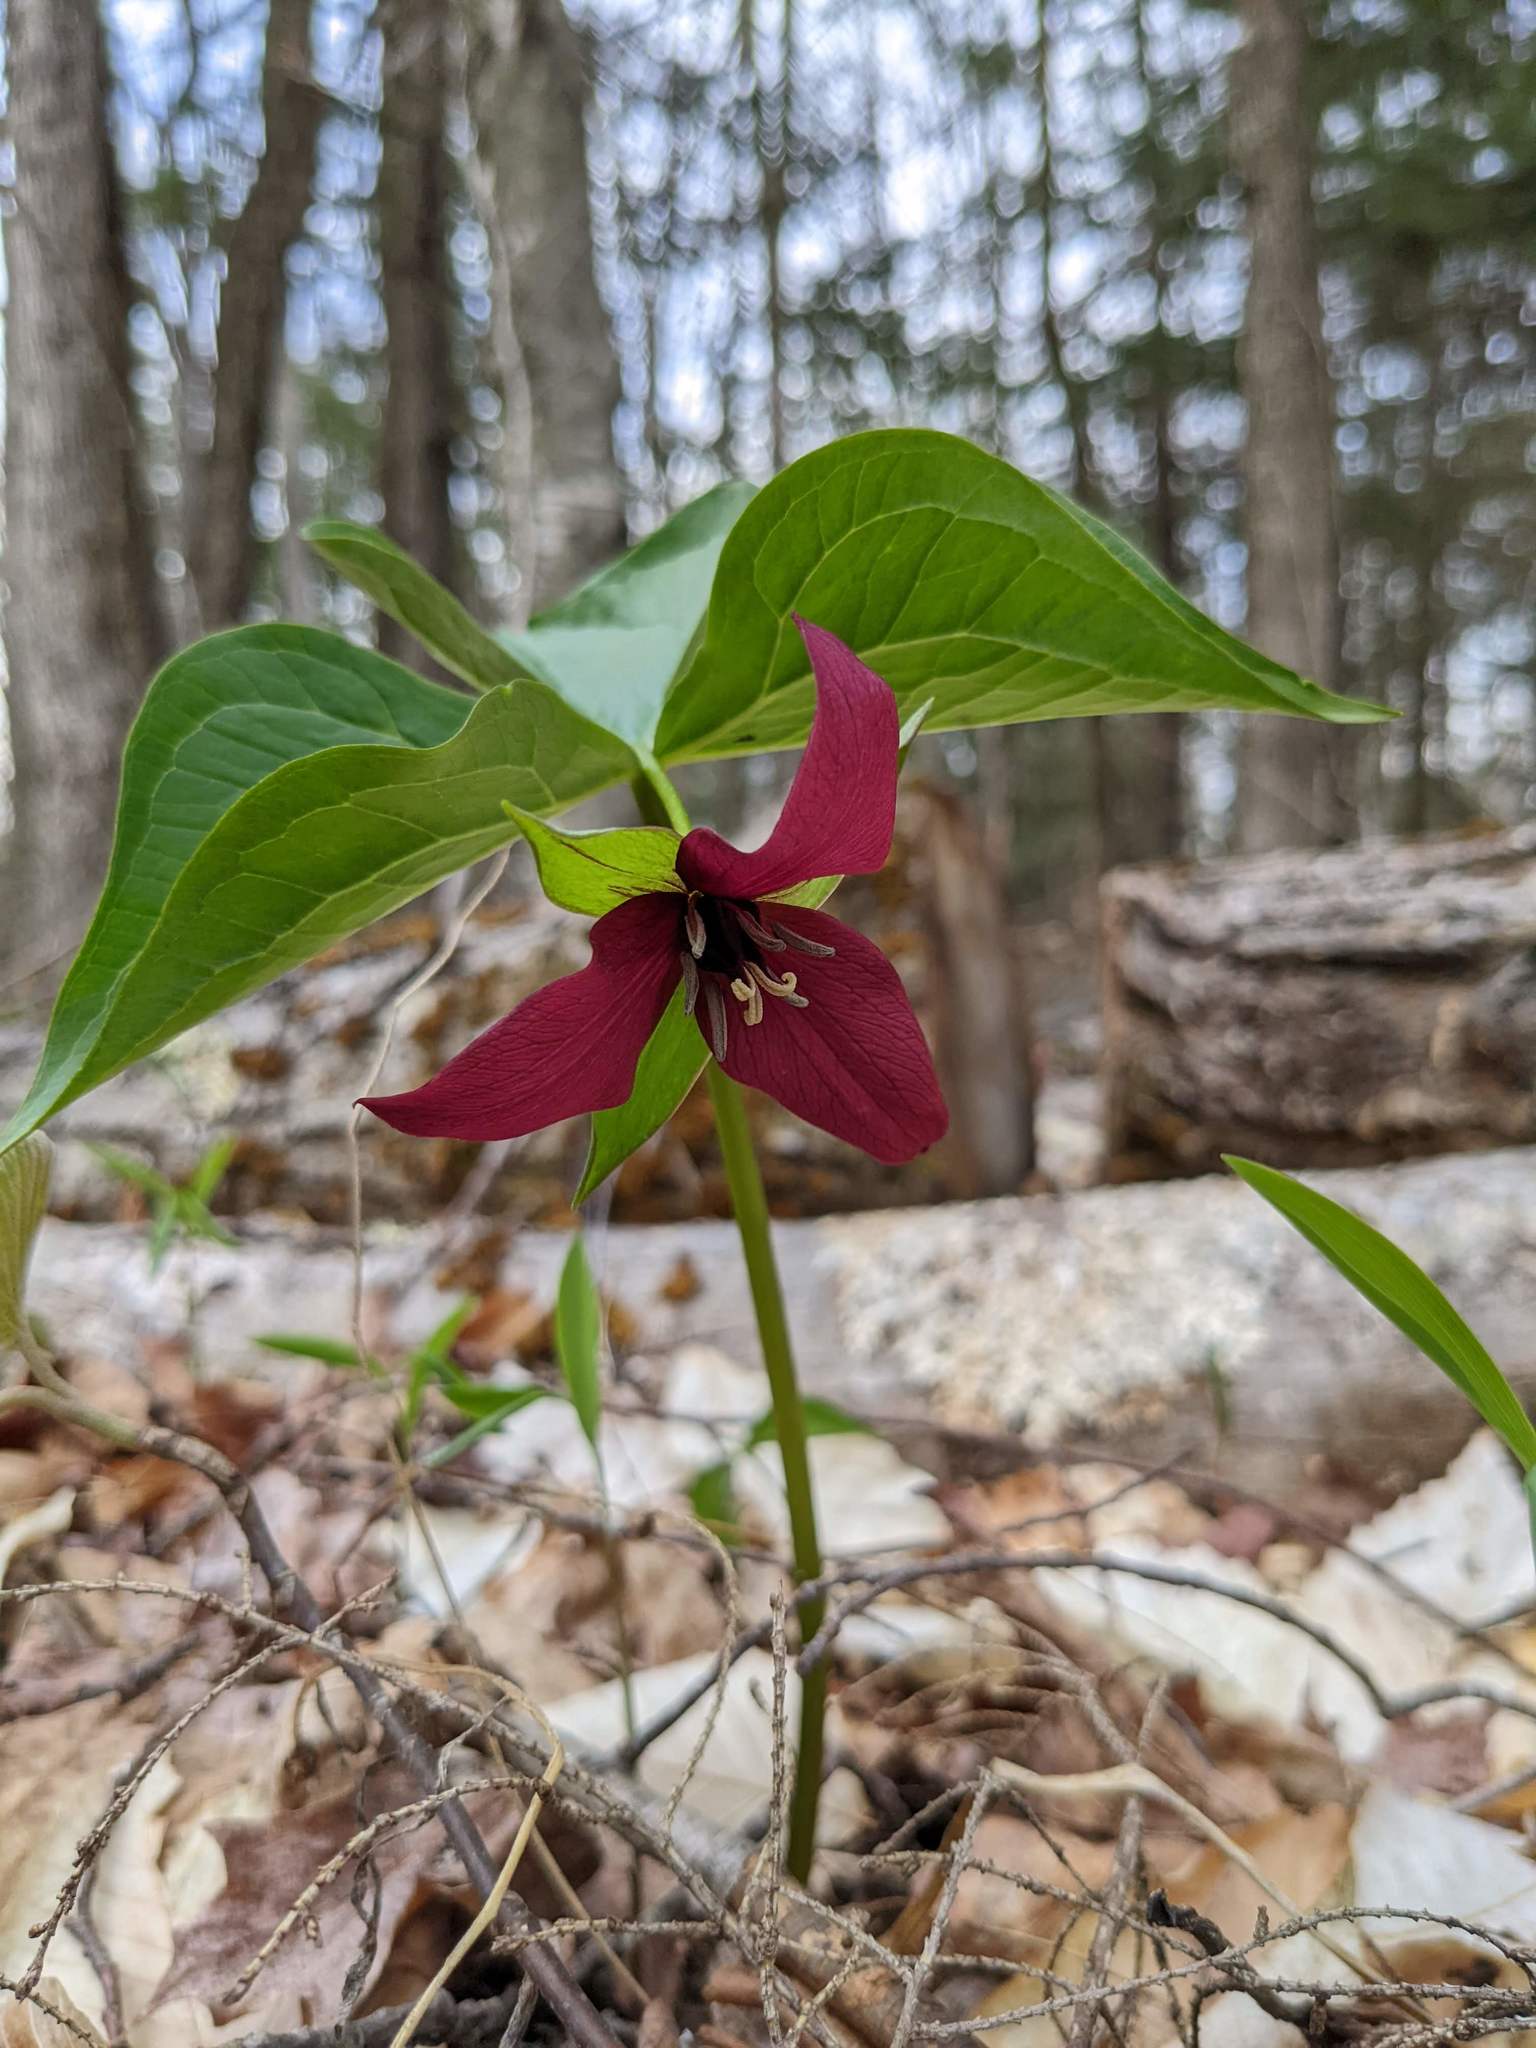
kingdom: Plantae
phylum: Tracheophyta
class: Liliopsida
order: Liliales
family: Melanthiaceae
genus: Trillium
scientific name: Trillium erectum
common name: Purple trillium
